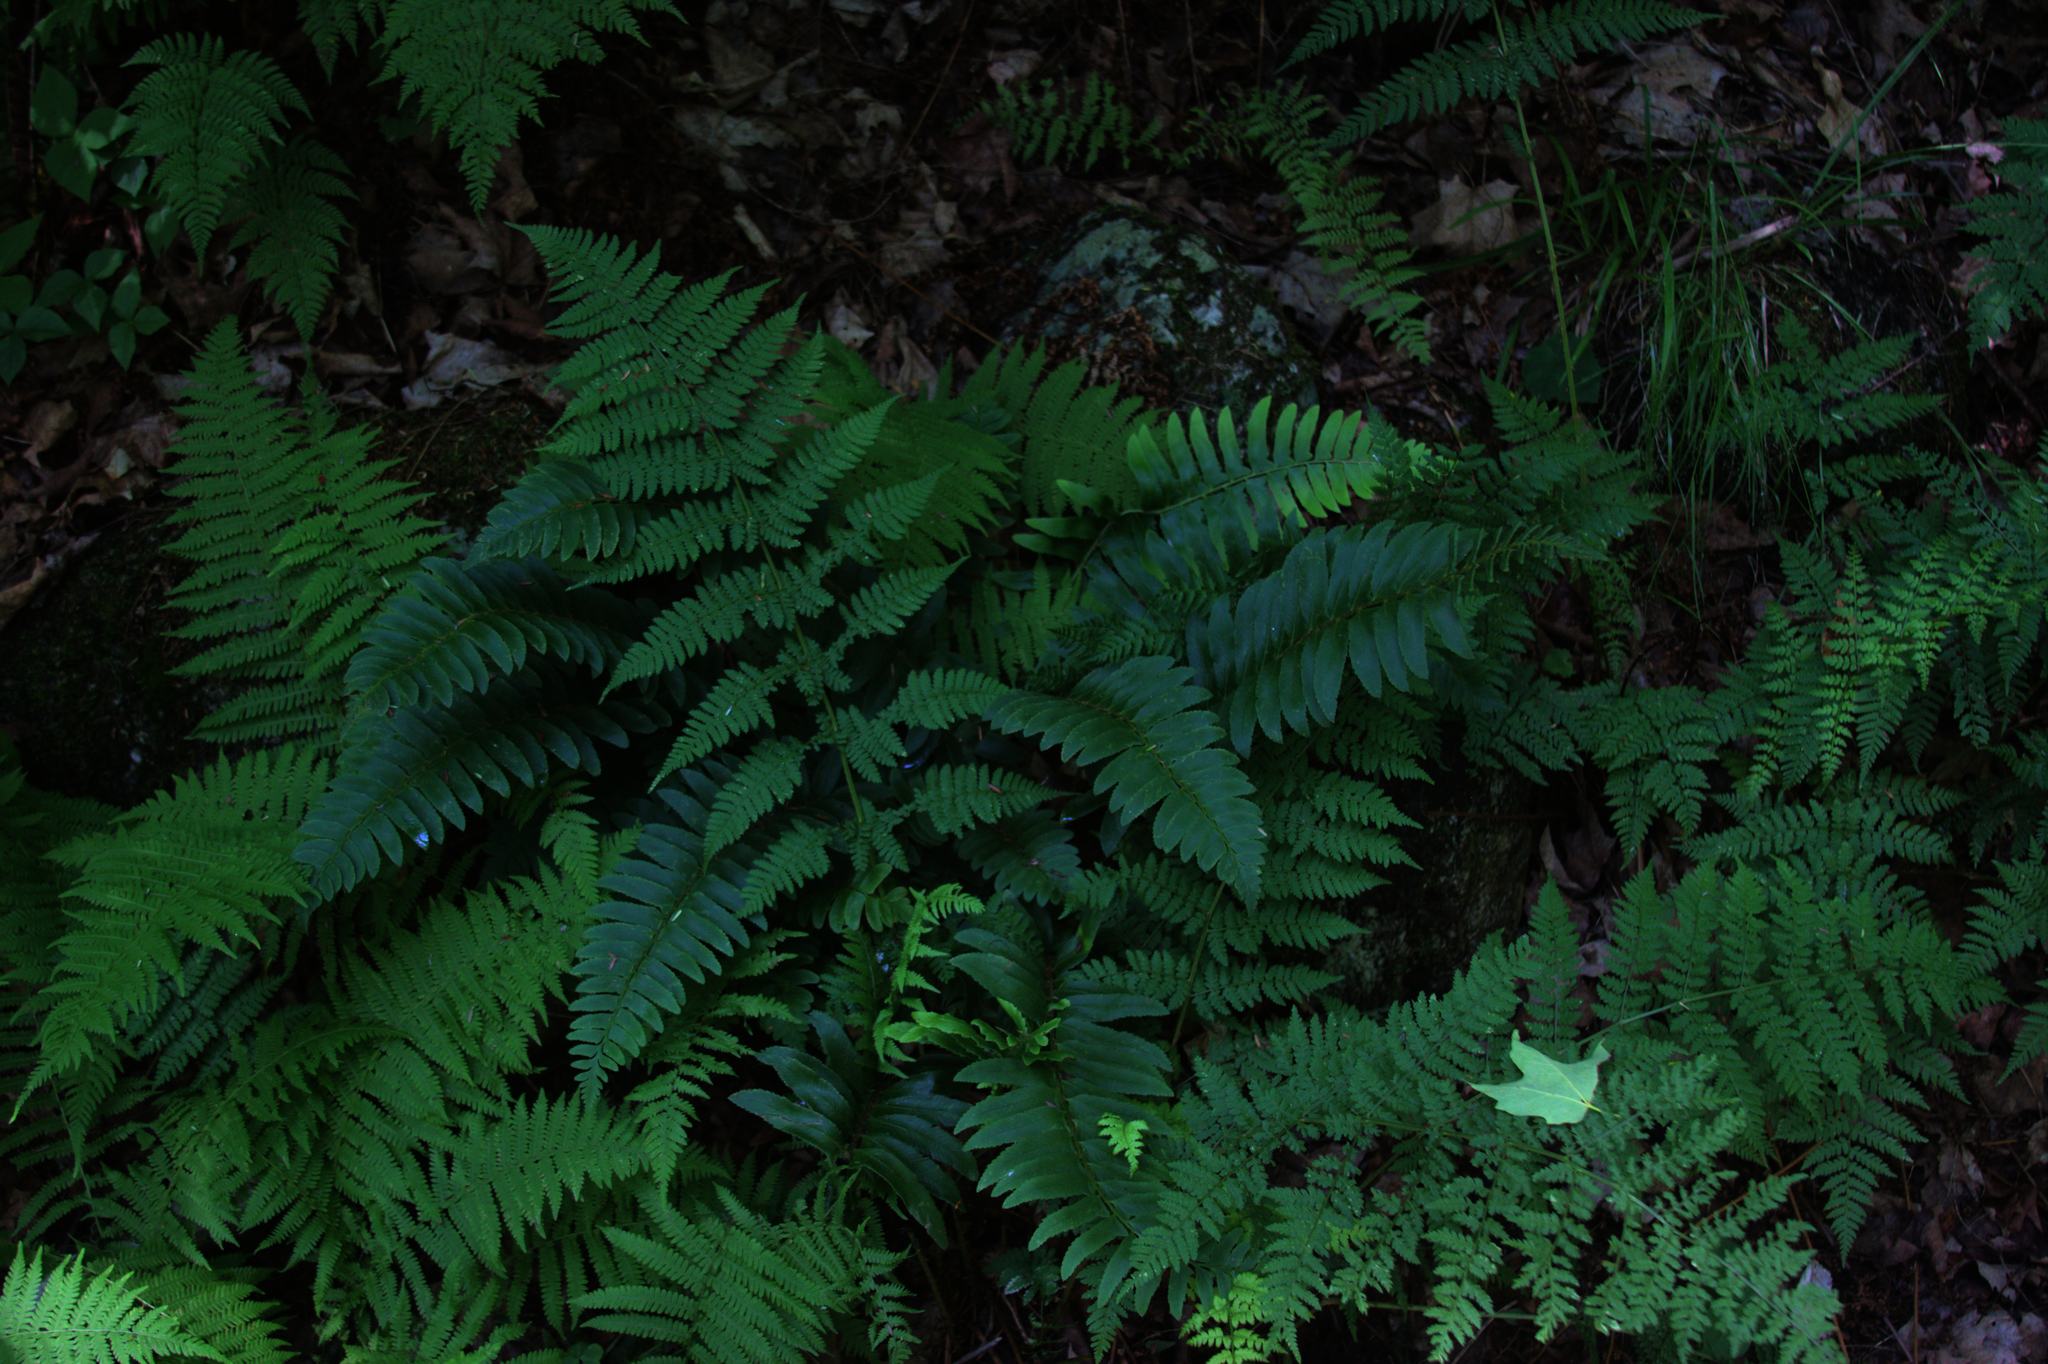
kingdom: Plantae
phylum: Tracheophyta
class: Polypodiopsida
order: Polypodiales
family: Dryopteridaceae
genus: Polystichum
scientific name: Polystichum acrostichoides
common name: Christmas fern
